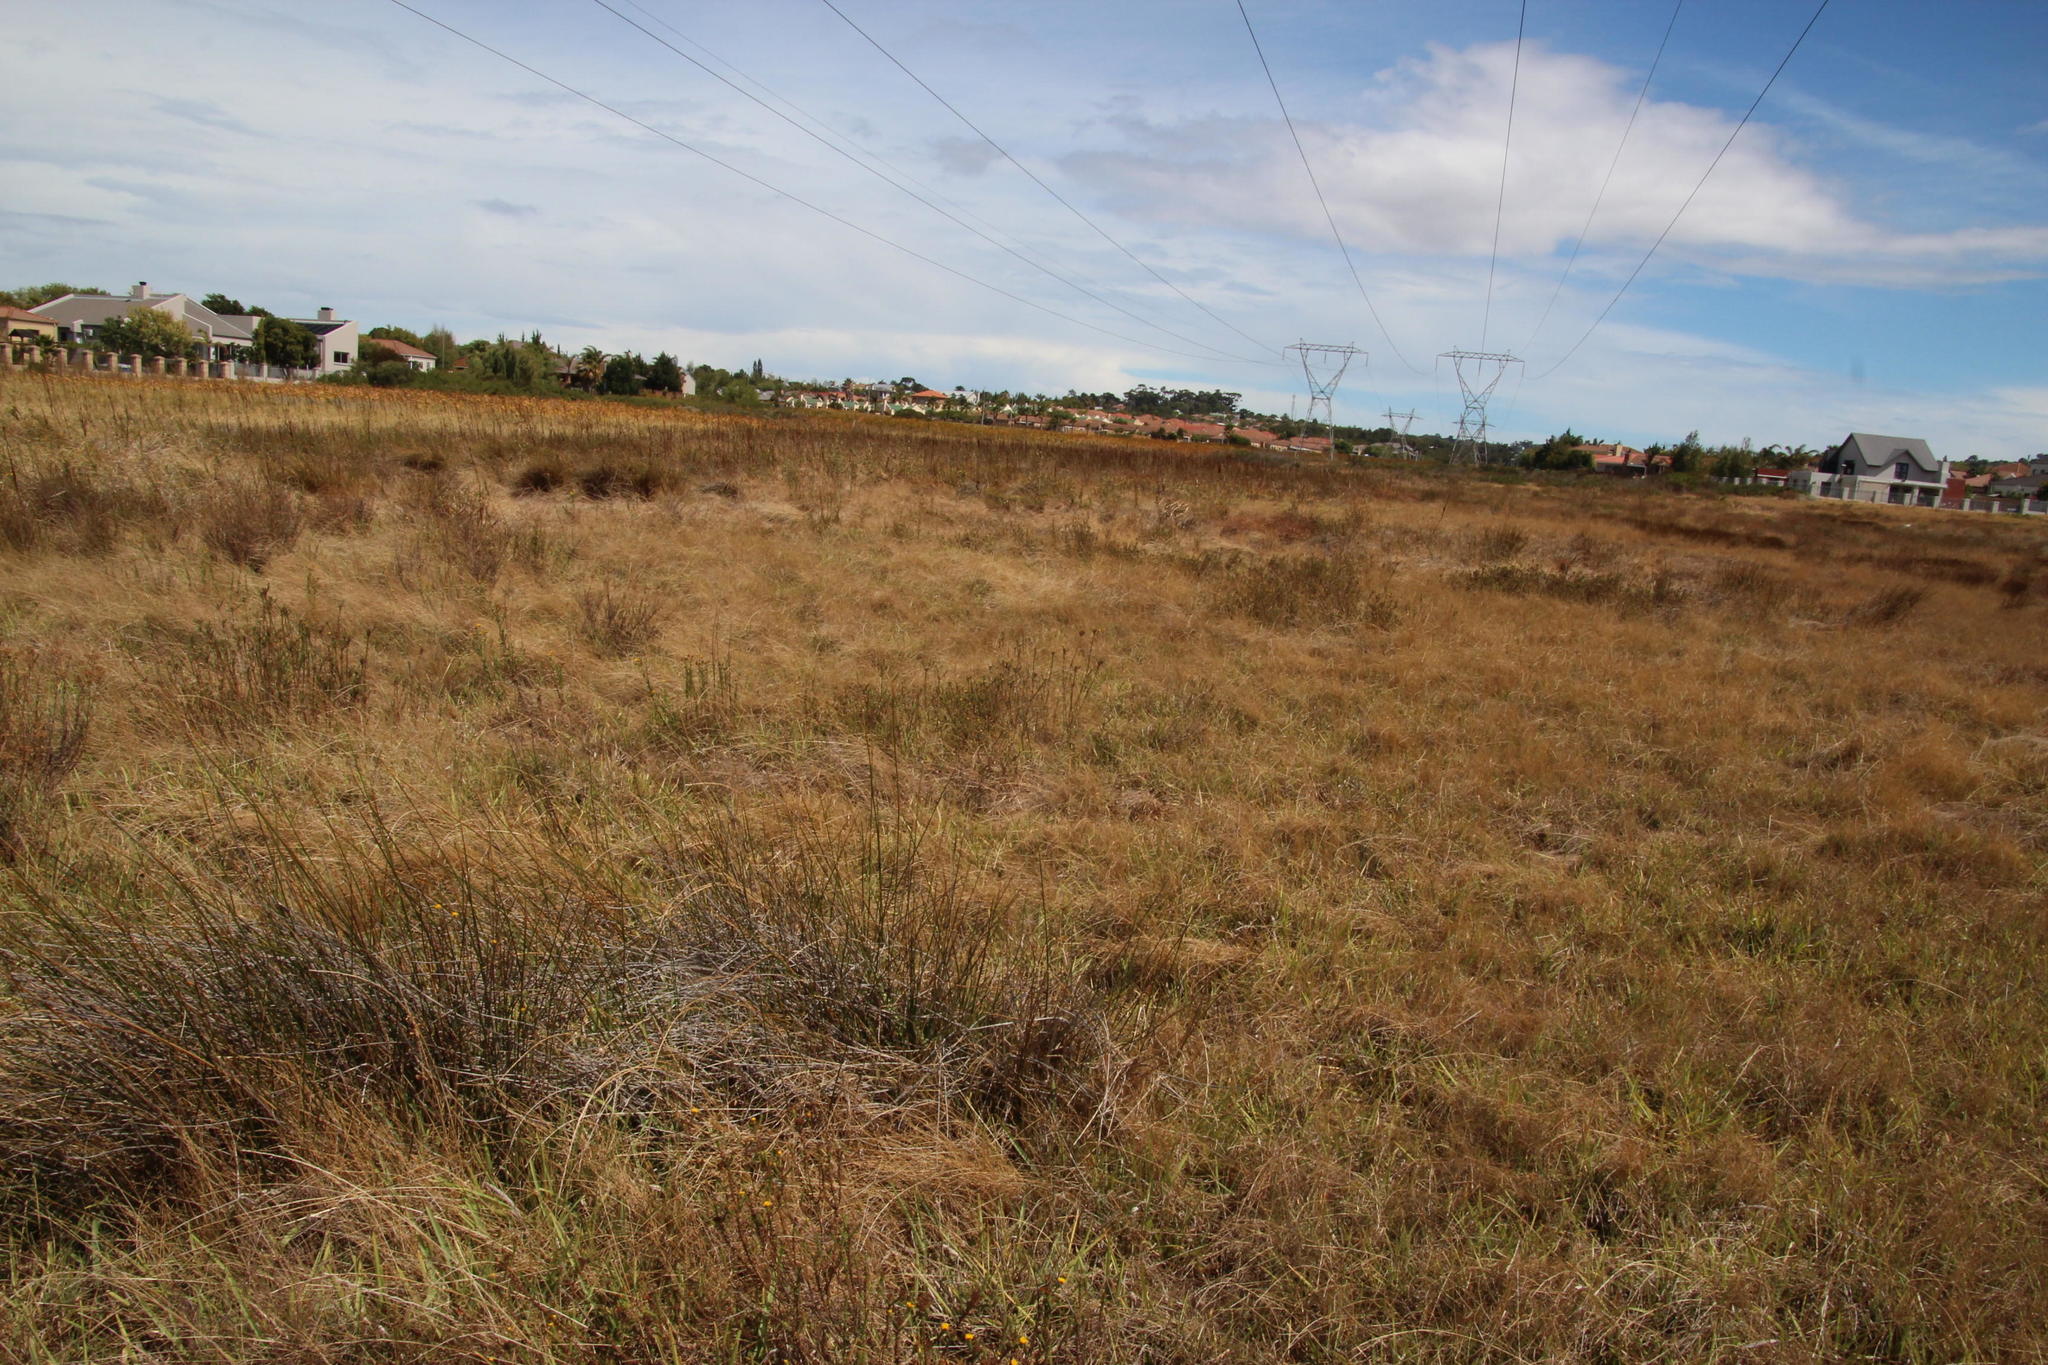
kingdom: Plantae
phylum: Tracheophyta
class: Liliopsida
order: Poales
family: Poaceae
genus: Cenchrus
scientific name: Cenchrus clandestinus
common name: Kikuyugrass
